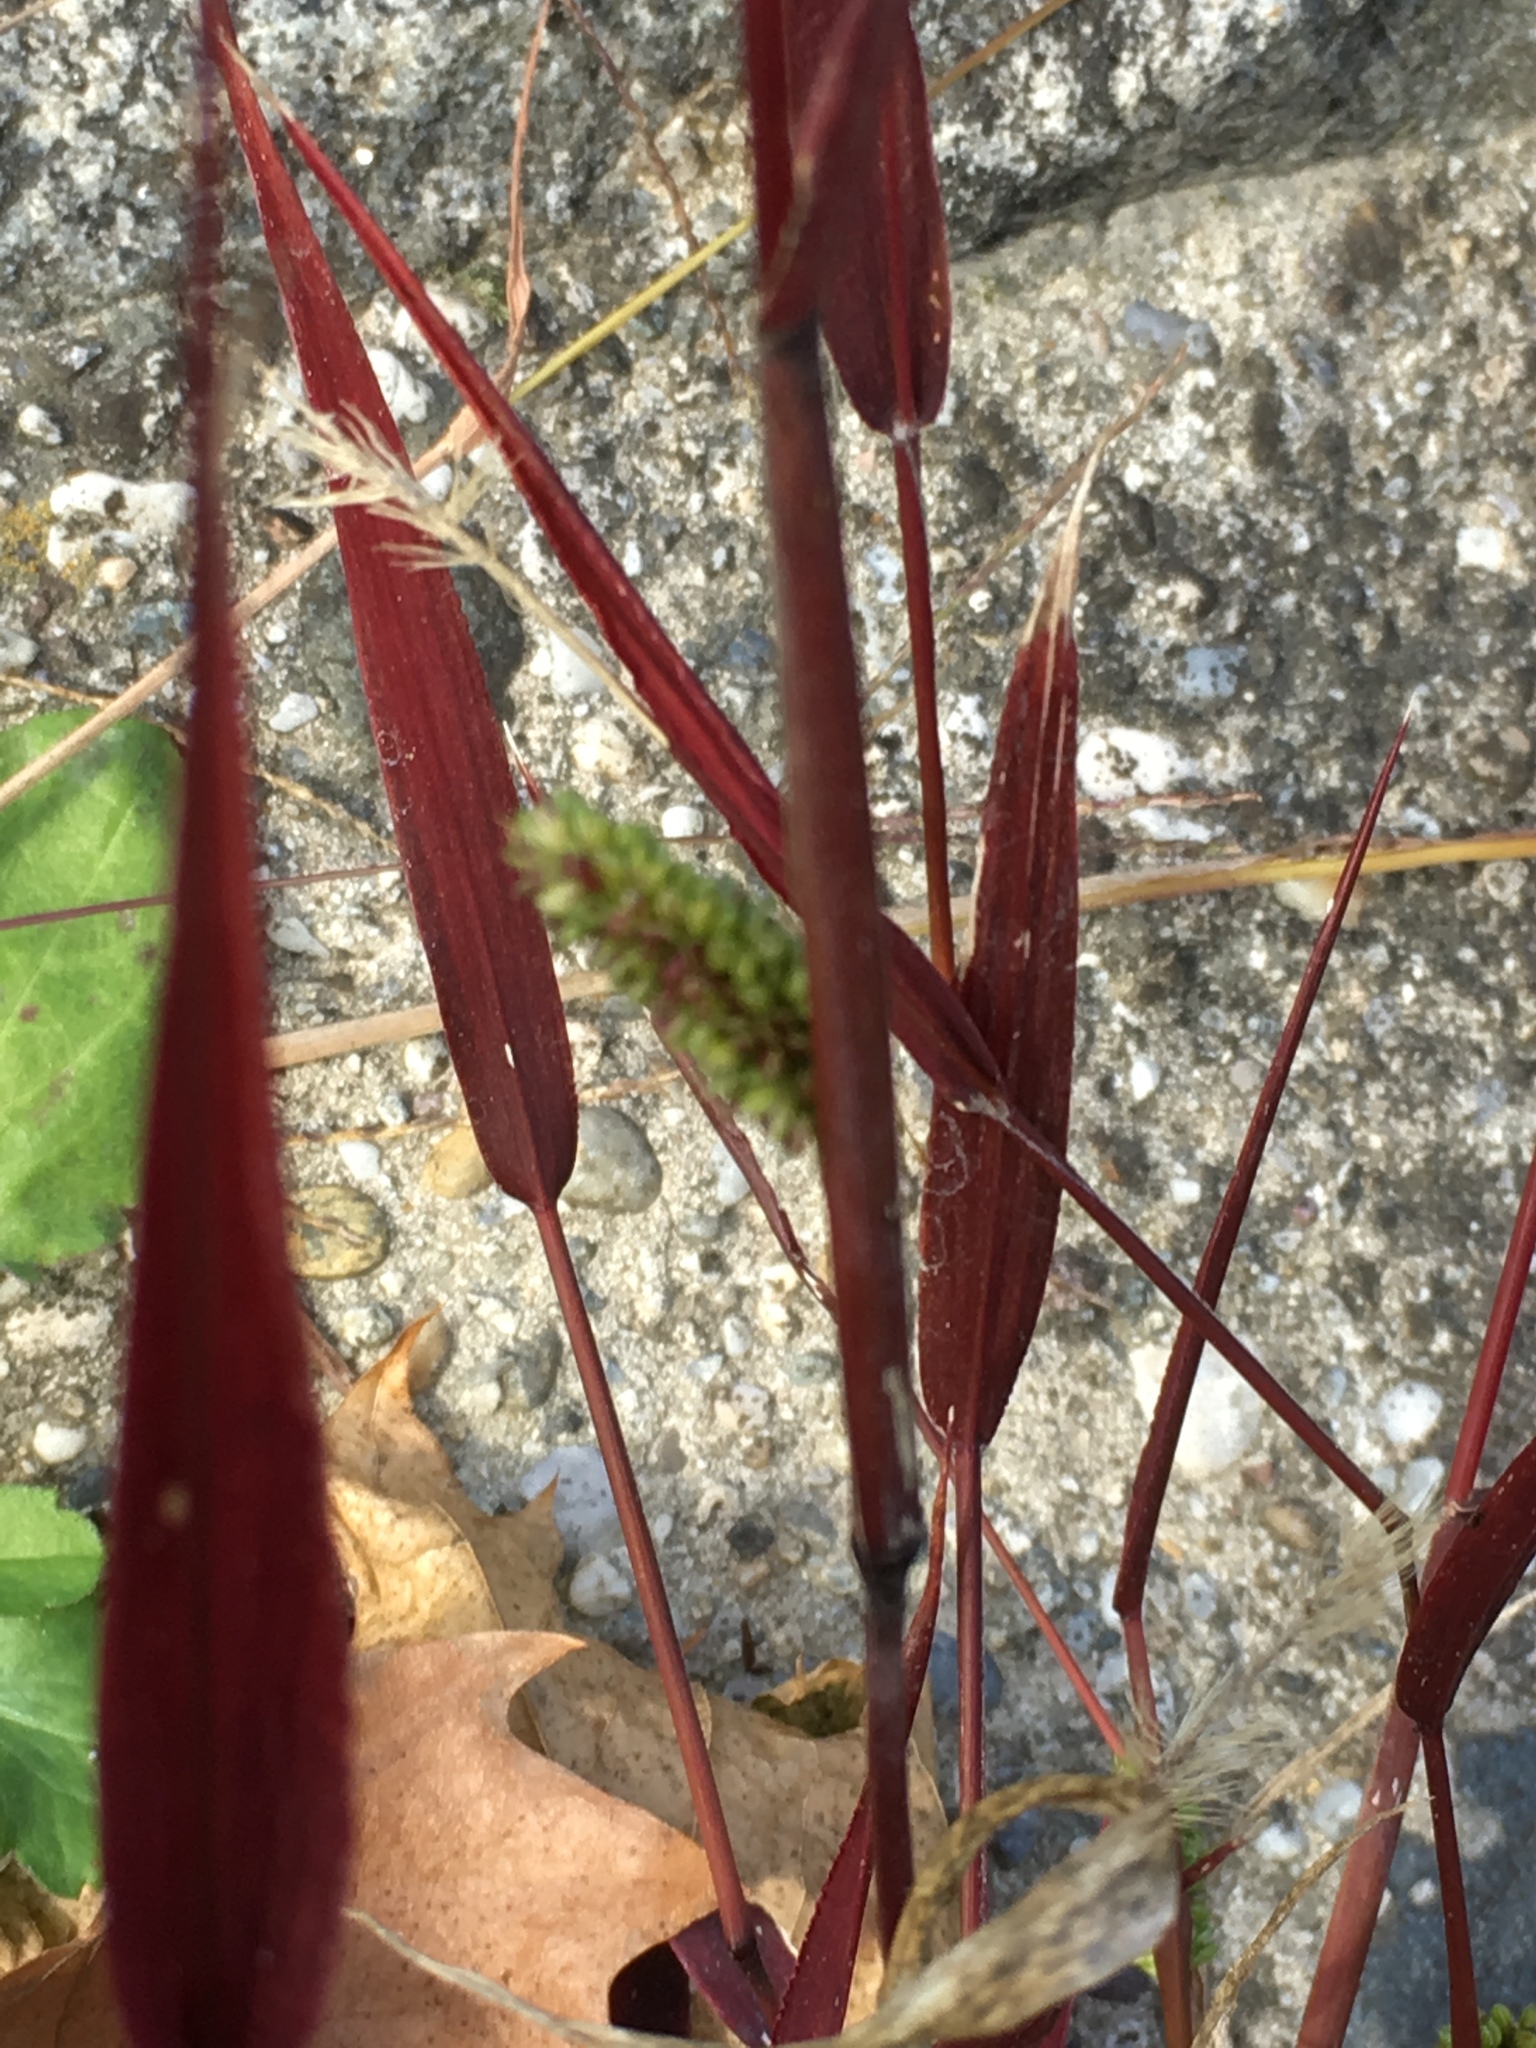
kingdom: Plantae
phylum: Tracheophyta
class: Liliopsida
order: Poales
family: Poaceae
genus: Setaria
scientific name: Setaria viridis
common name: Green bristlegrass
